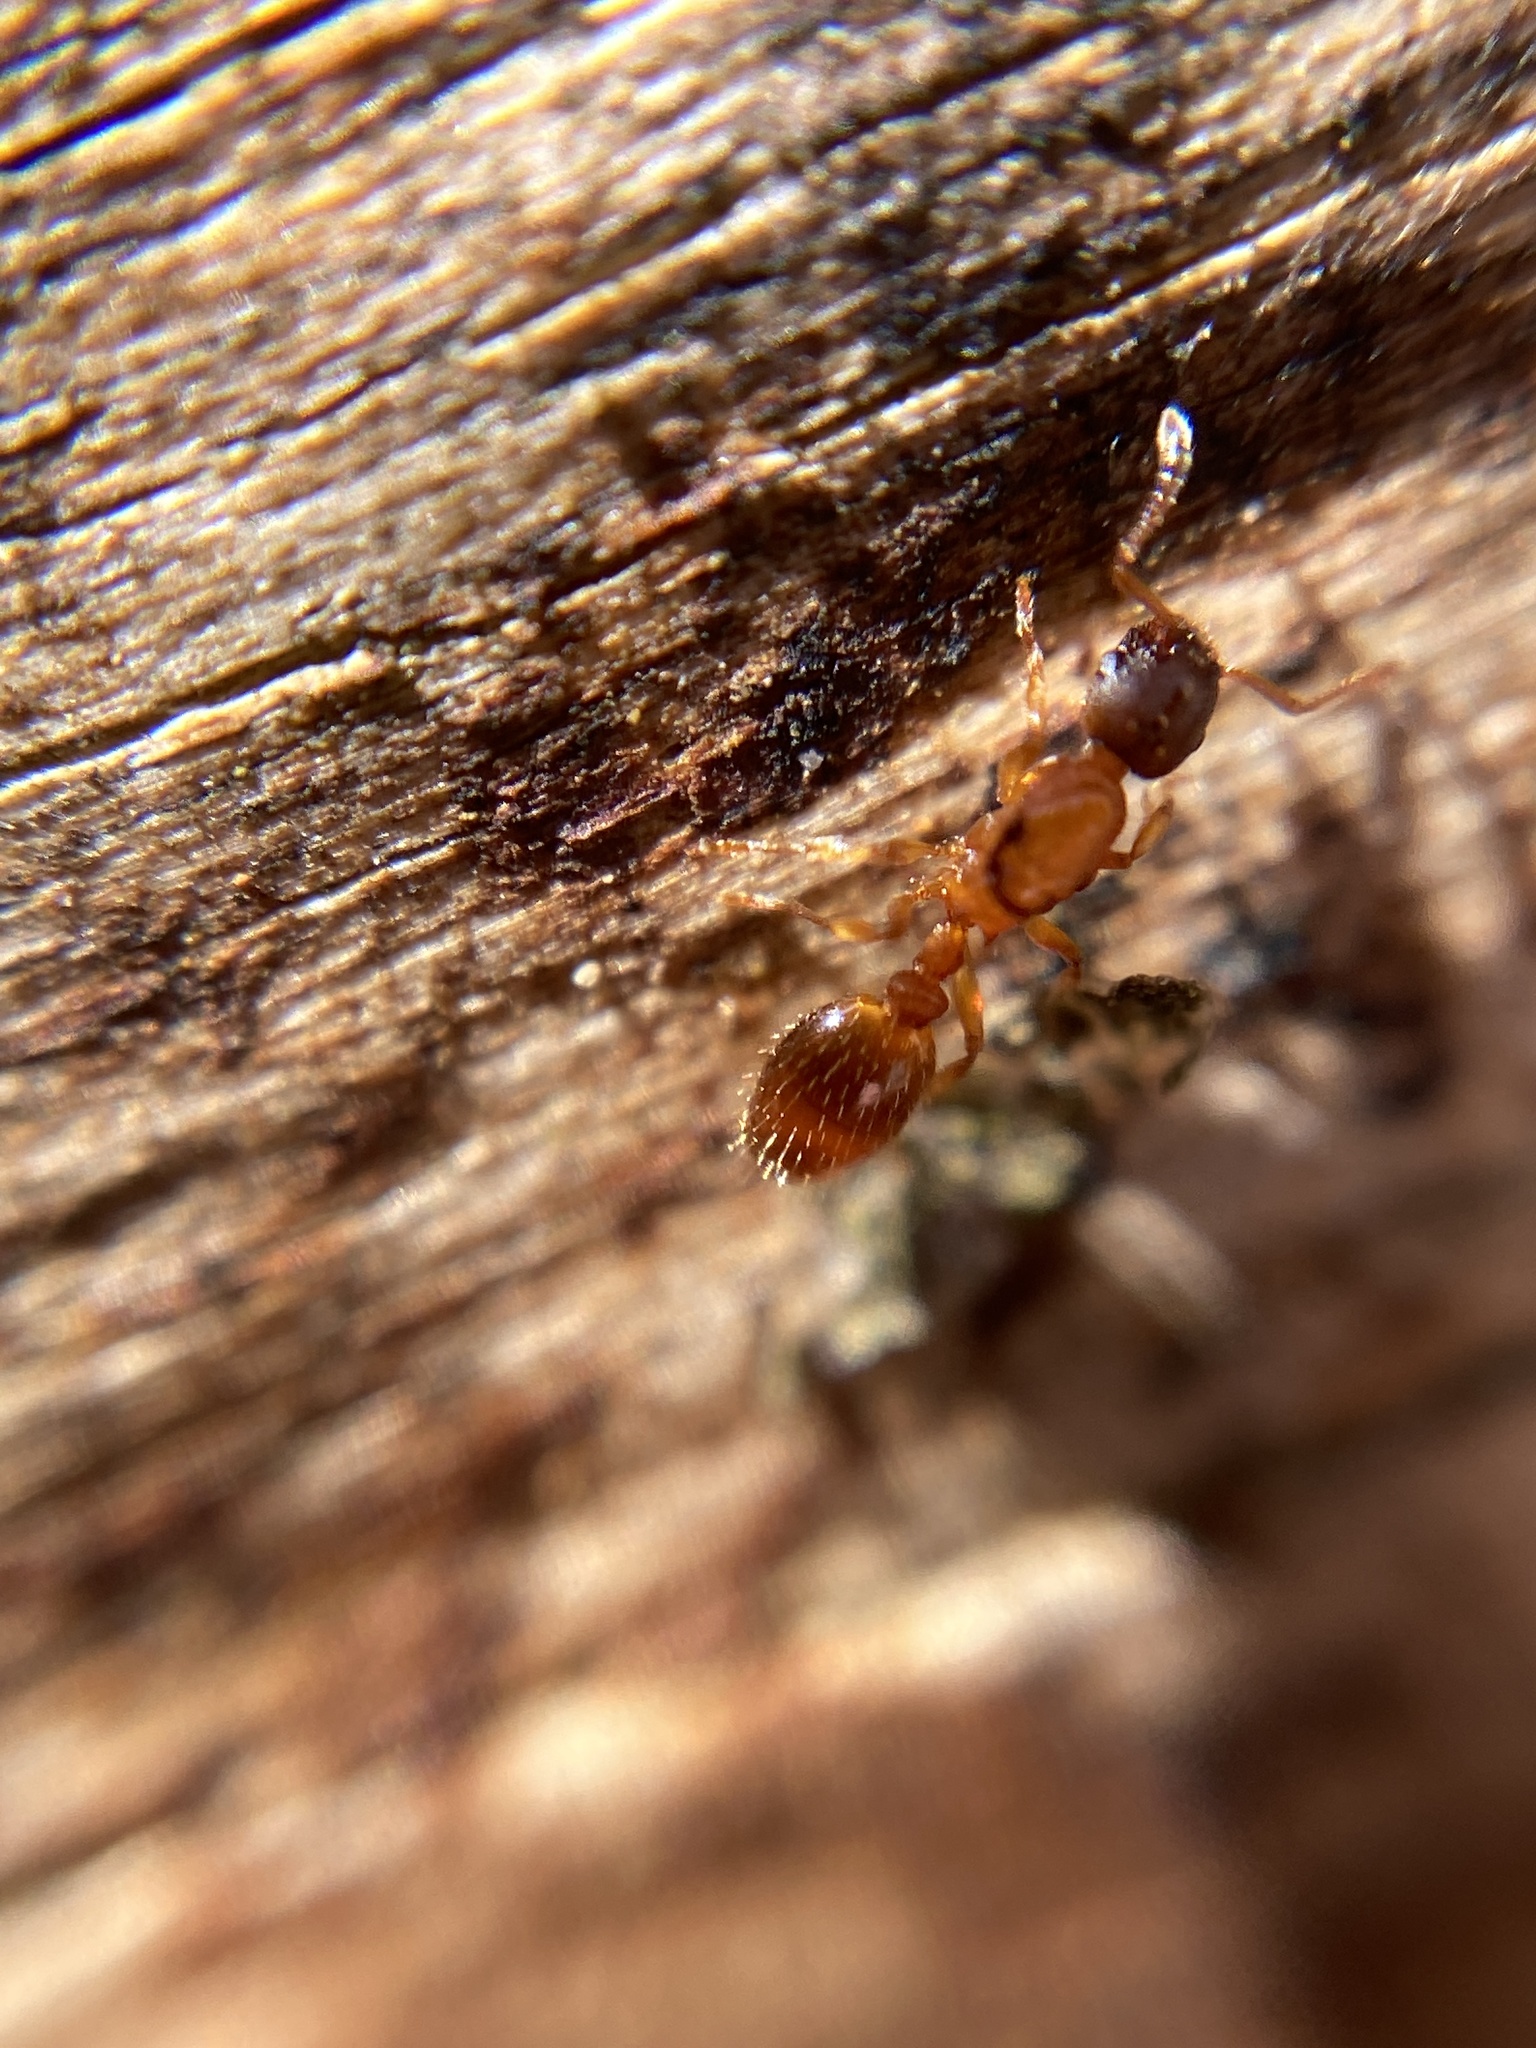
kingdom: Animalia
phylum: Arthropoda
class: Insecta
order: Hymenoptera
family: Formicidae
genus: Myrmica
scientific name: Myrmica rubra
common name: European fire ant
